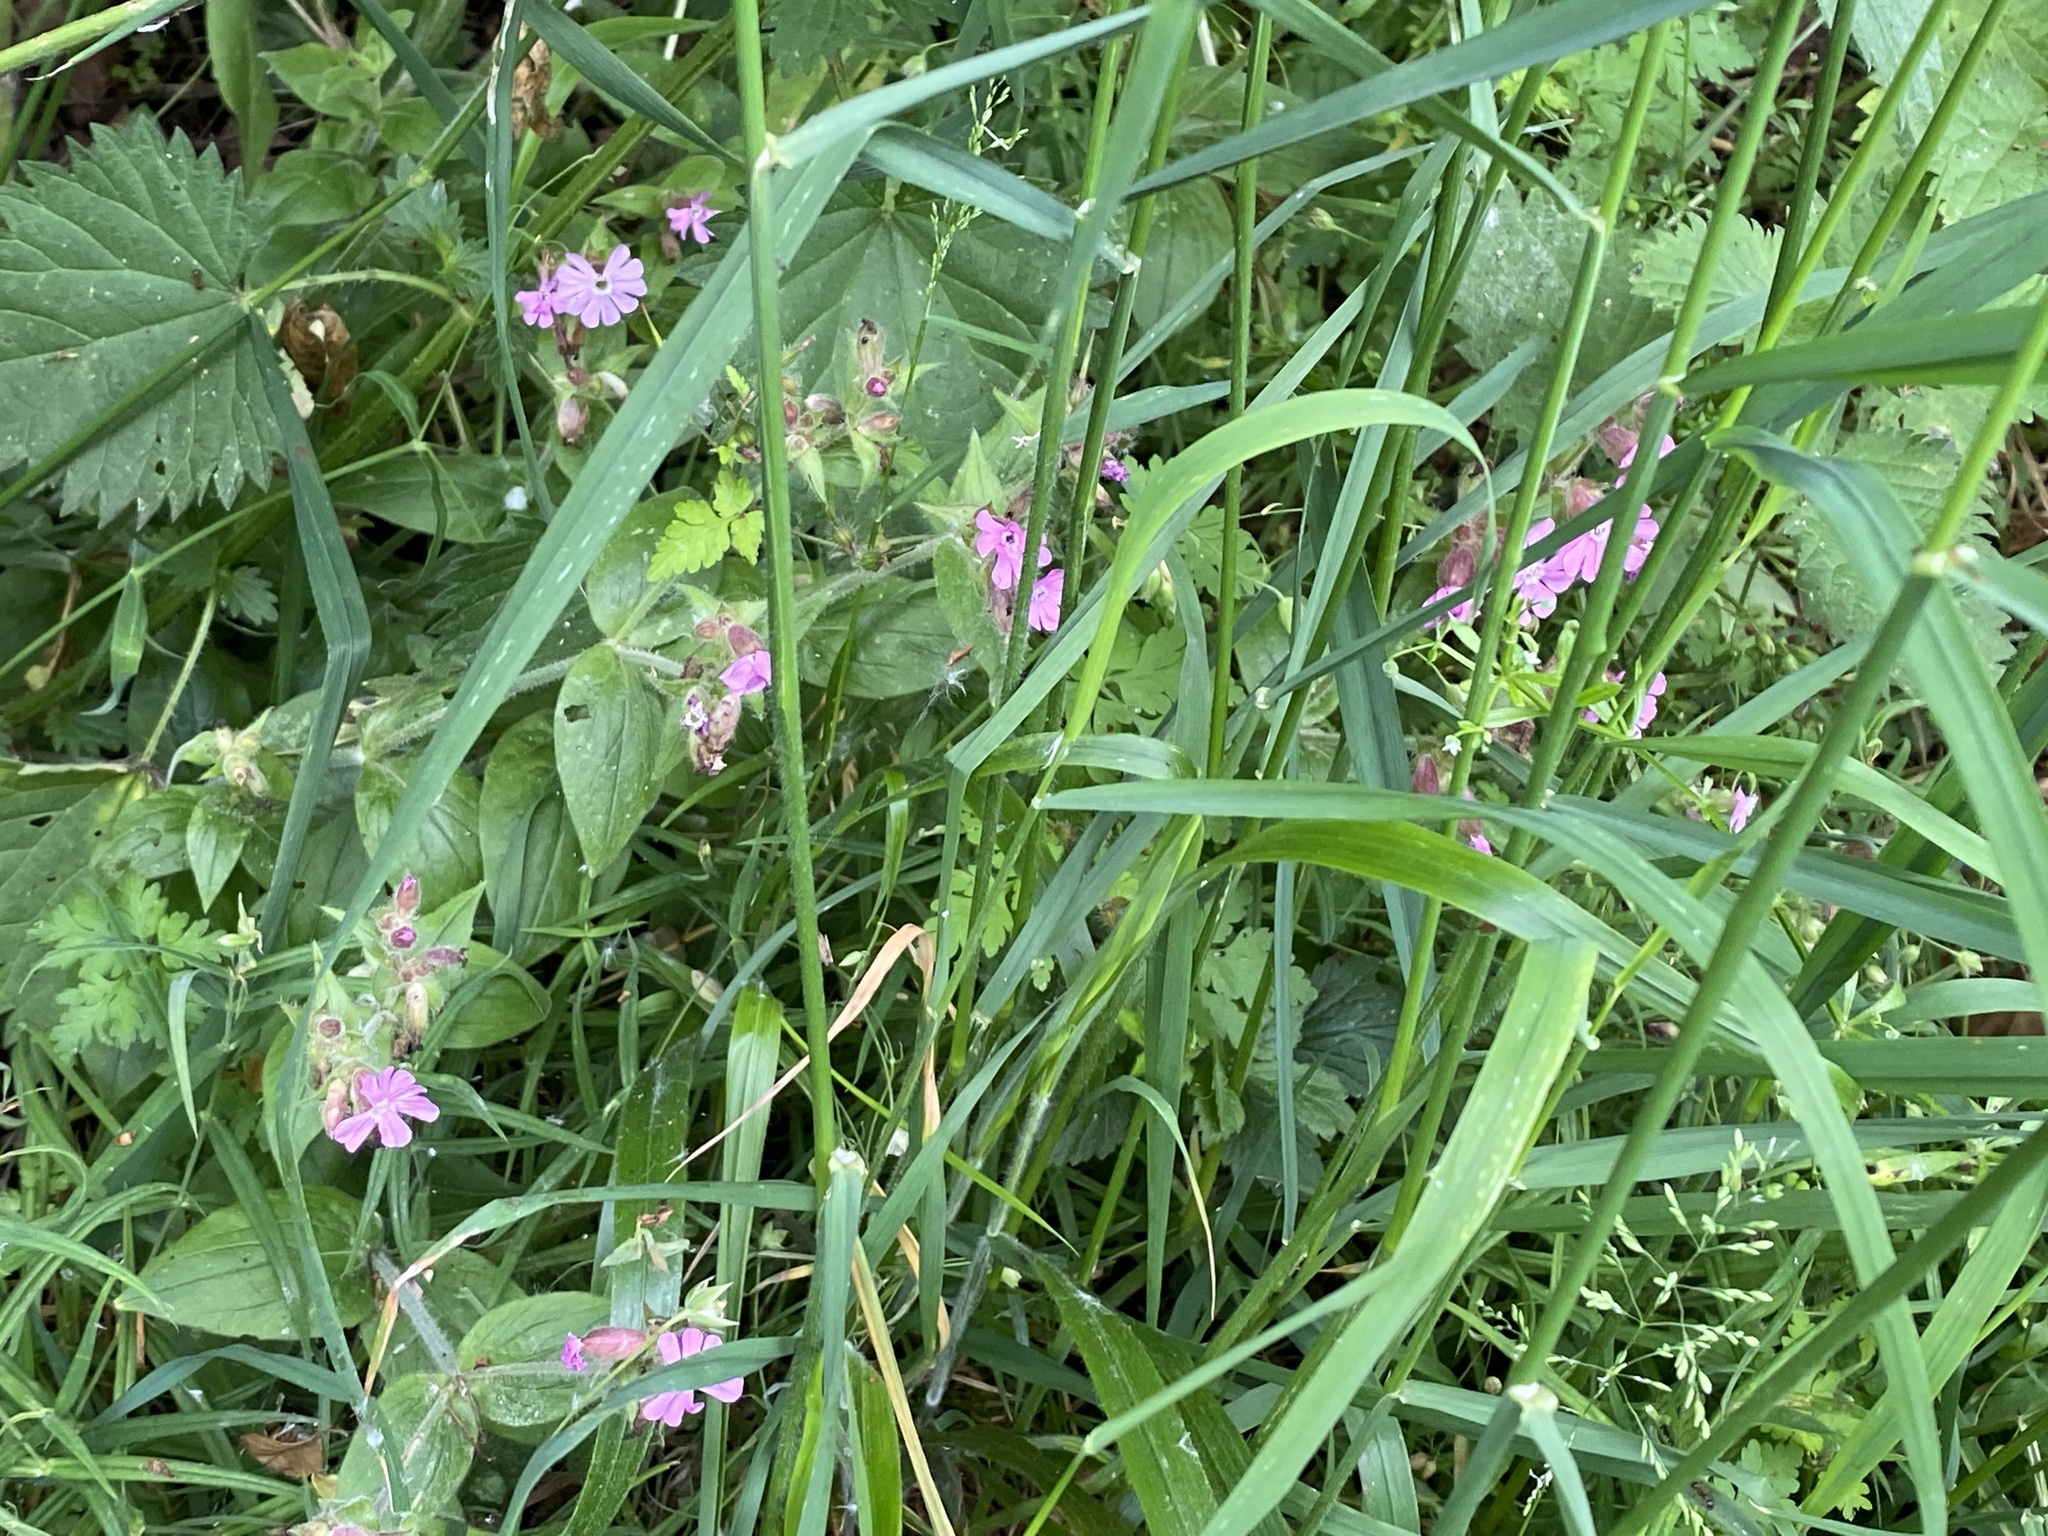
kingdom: Plantae
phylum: Tracheophyta
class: Magnoliopsida
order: Caryophyllales
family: Caryophyllaceae
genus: Silene
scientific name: Silene dioica
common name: Red campion
